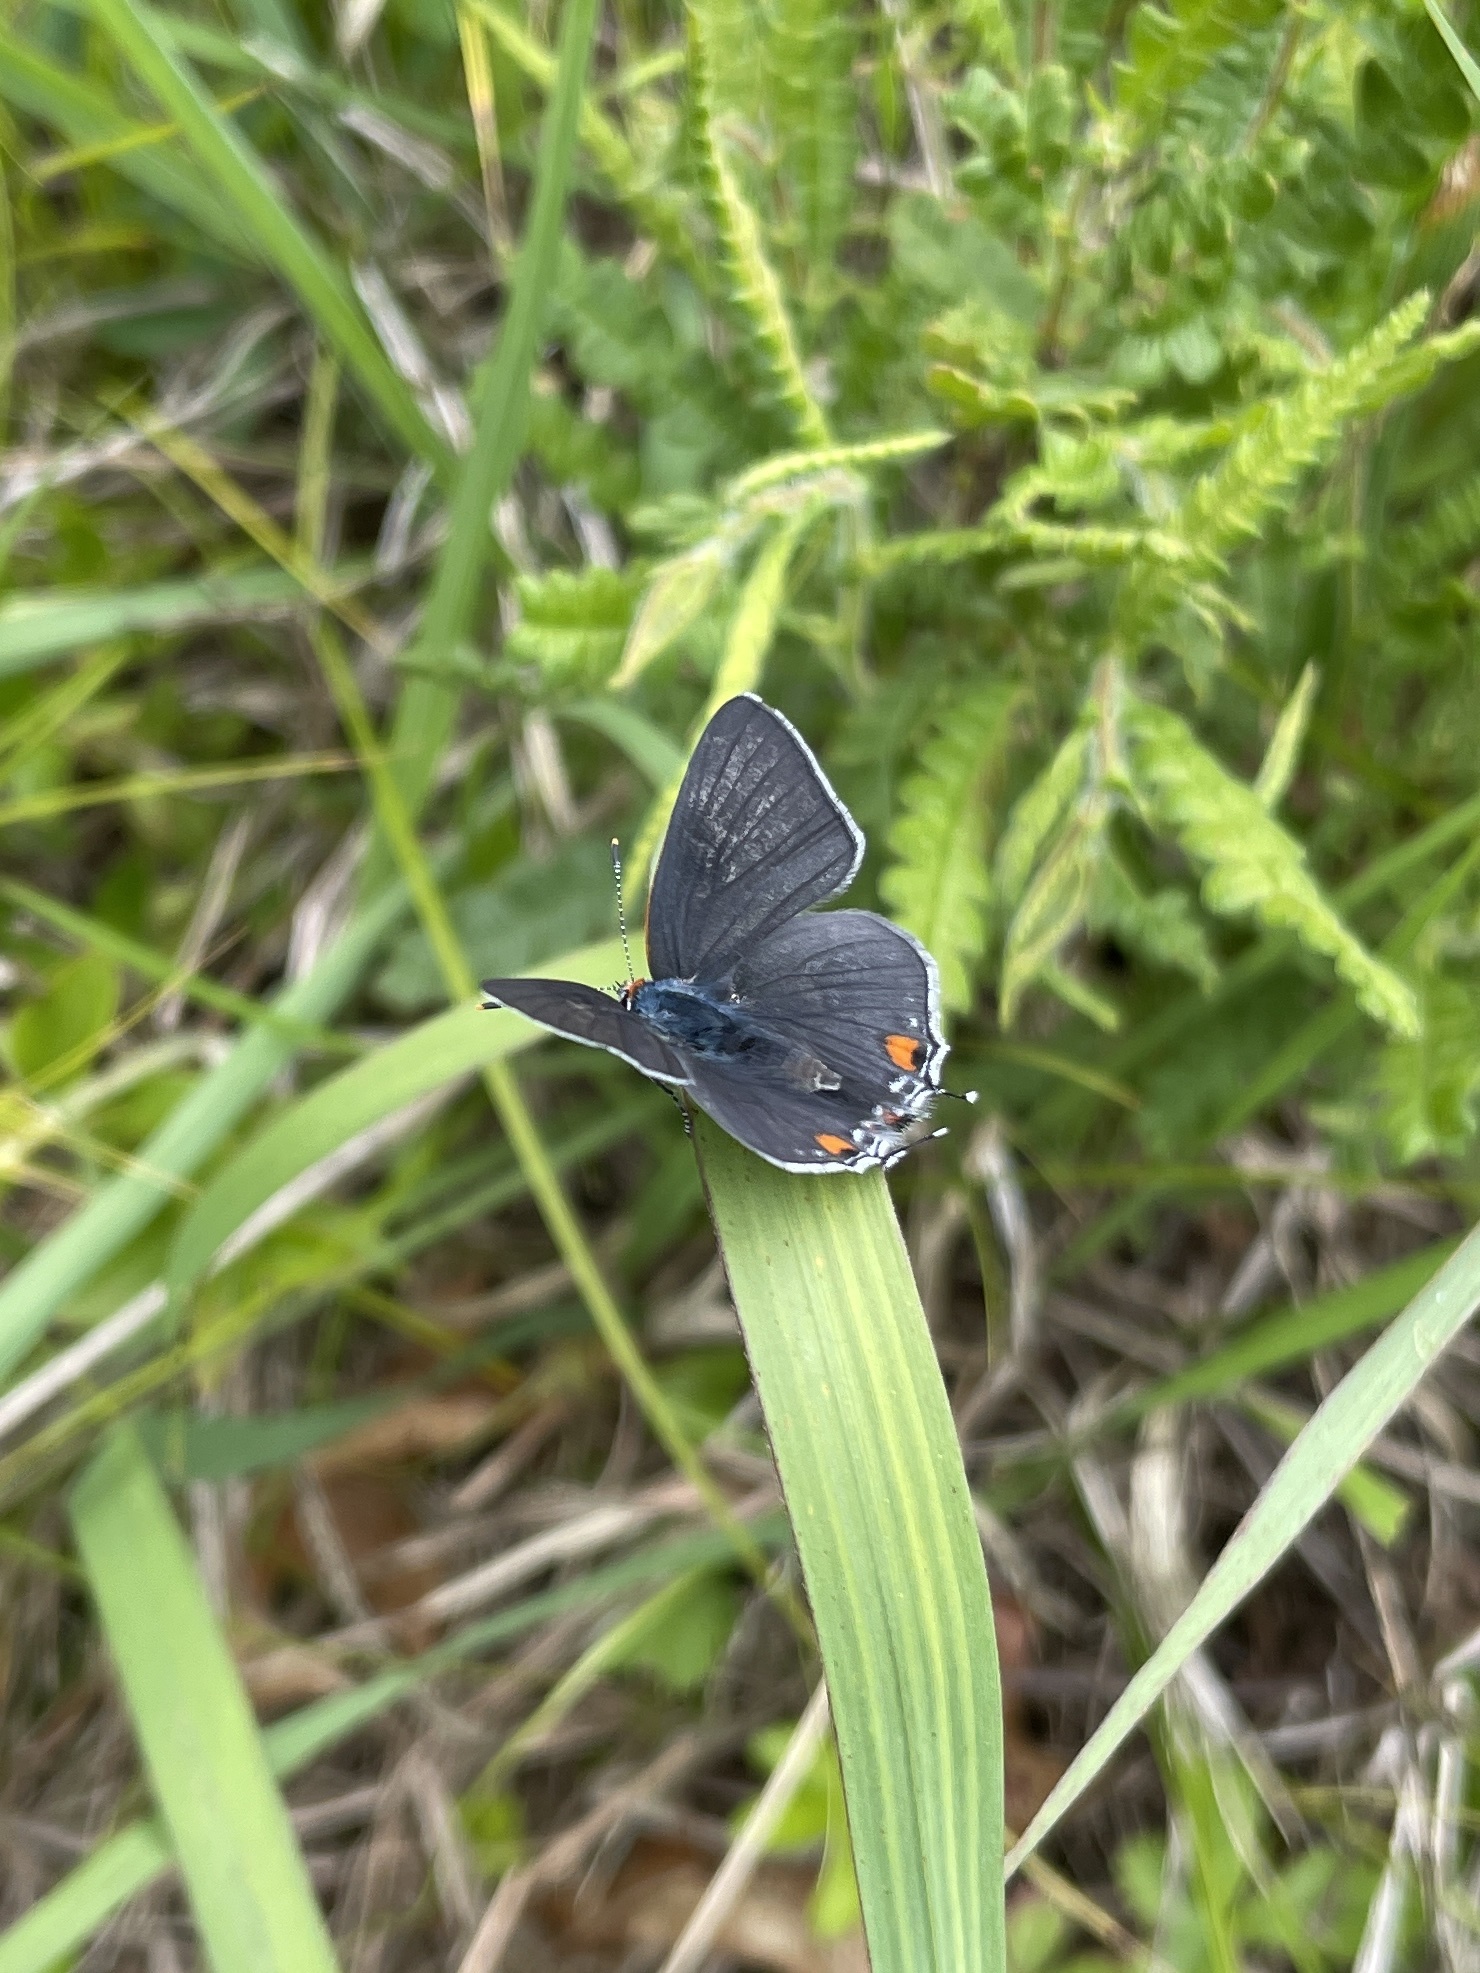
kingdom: Animalia
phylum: Arthropoda
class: Insecta
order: Lepidoptera
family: Lycaenidae
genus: Strymon
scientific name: Strymon melinus
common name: Gray hairstreak
